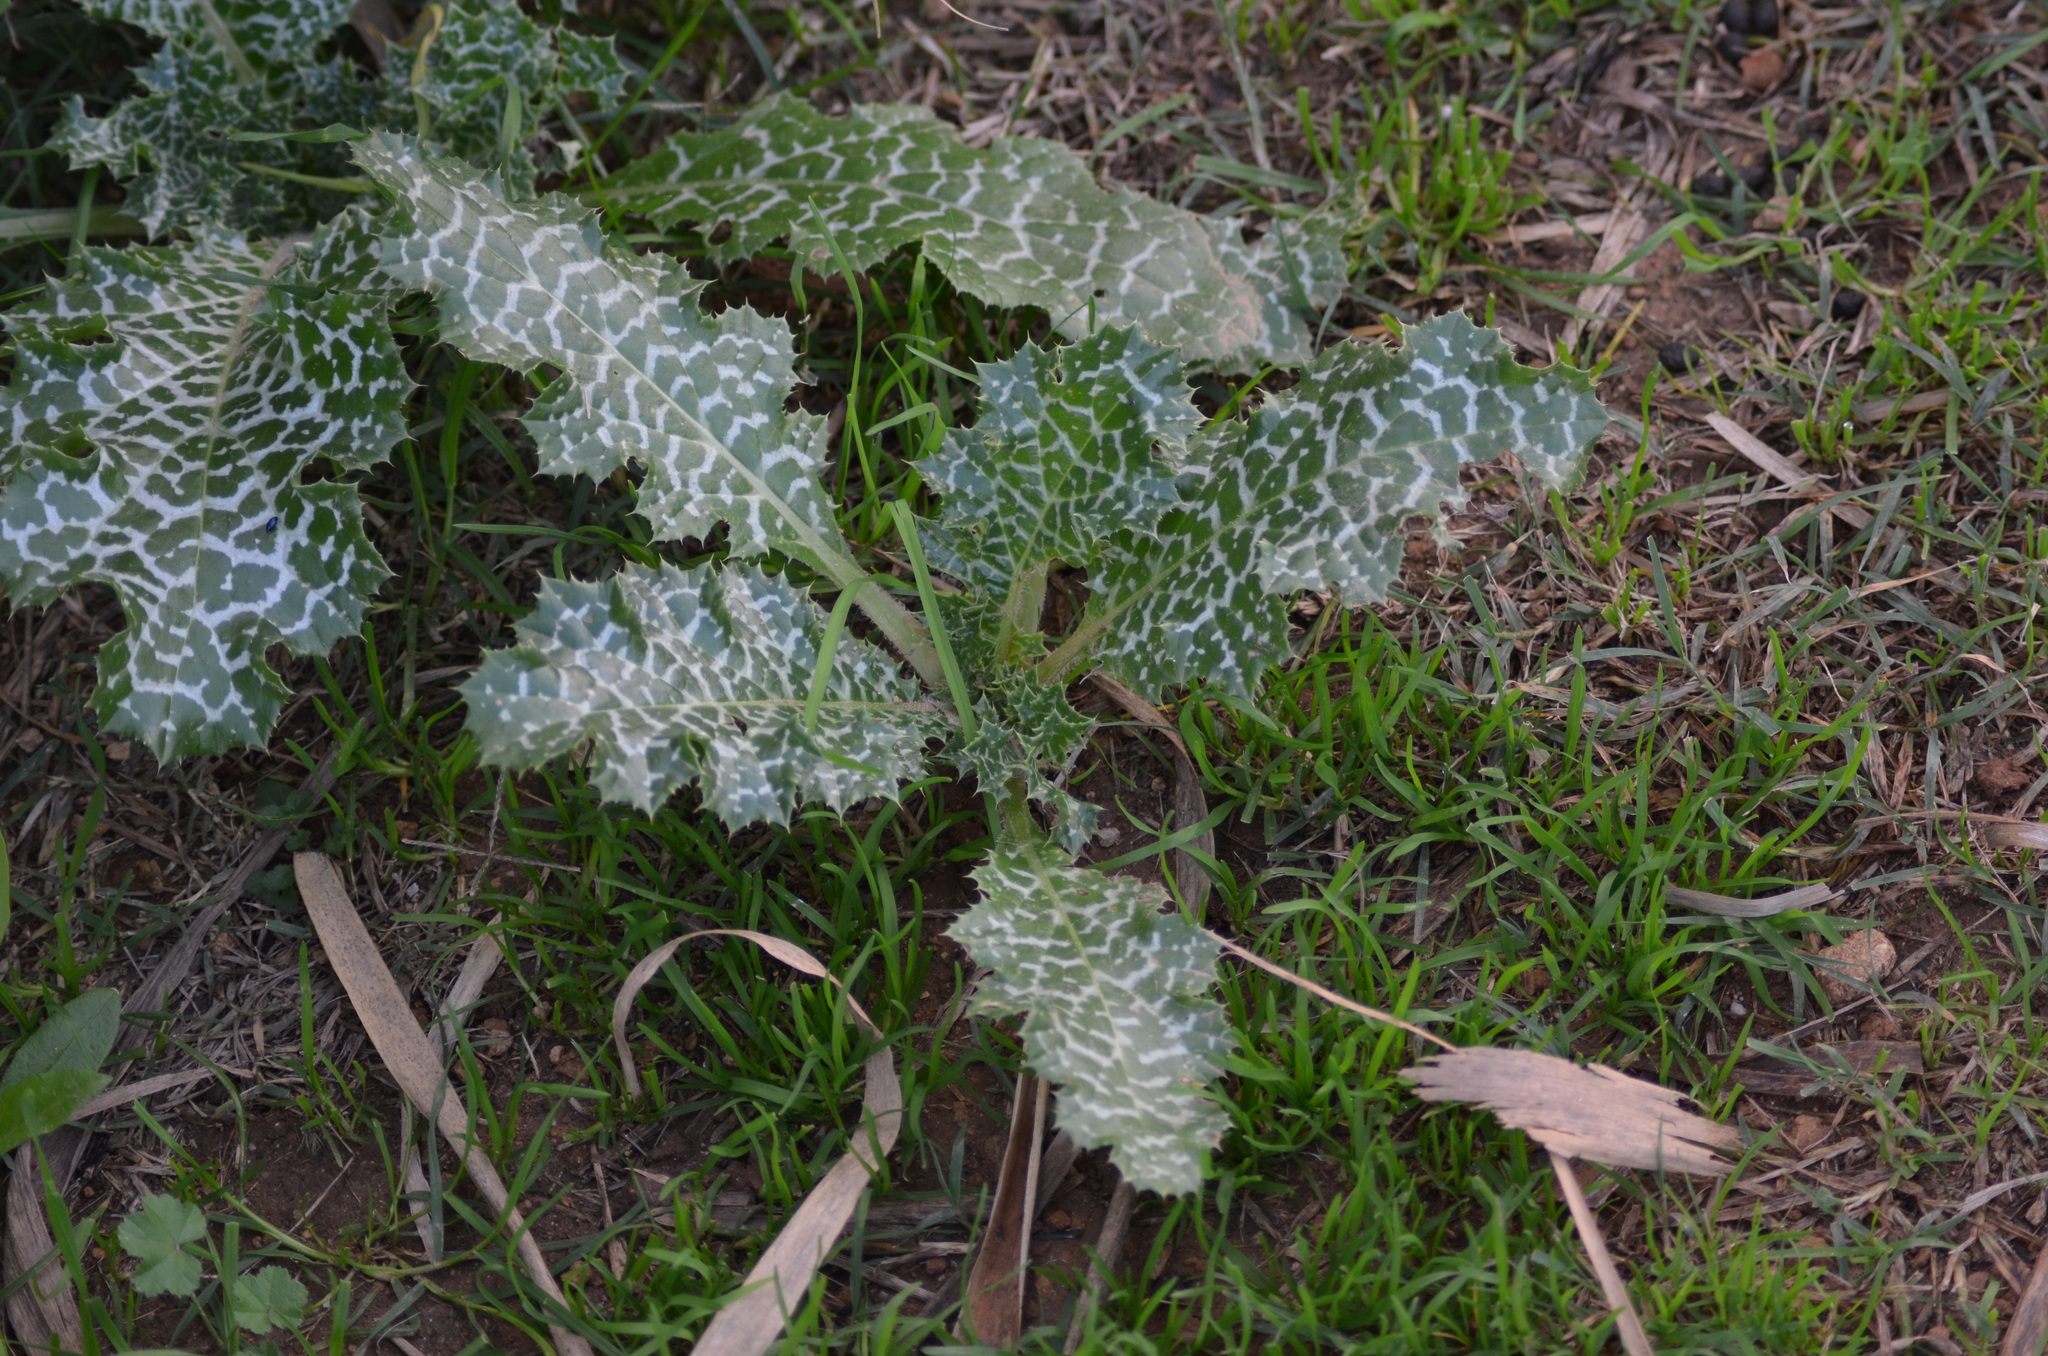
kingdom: Plantae
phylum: Tracheophyta
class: Magnoliopsida
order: Asterales
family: Asteraceae
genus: Silybum
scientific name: Silybum marianum
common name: Milk thistle
